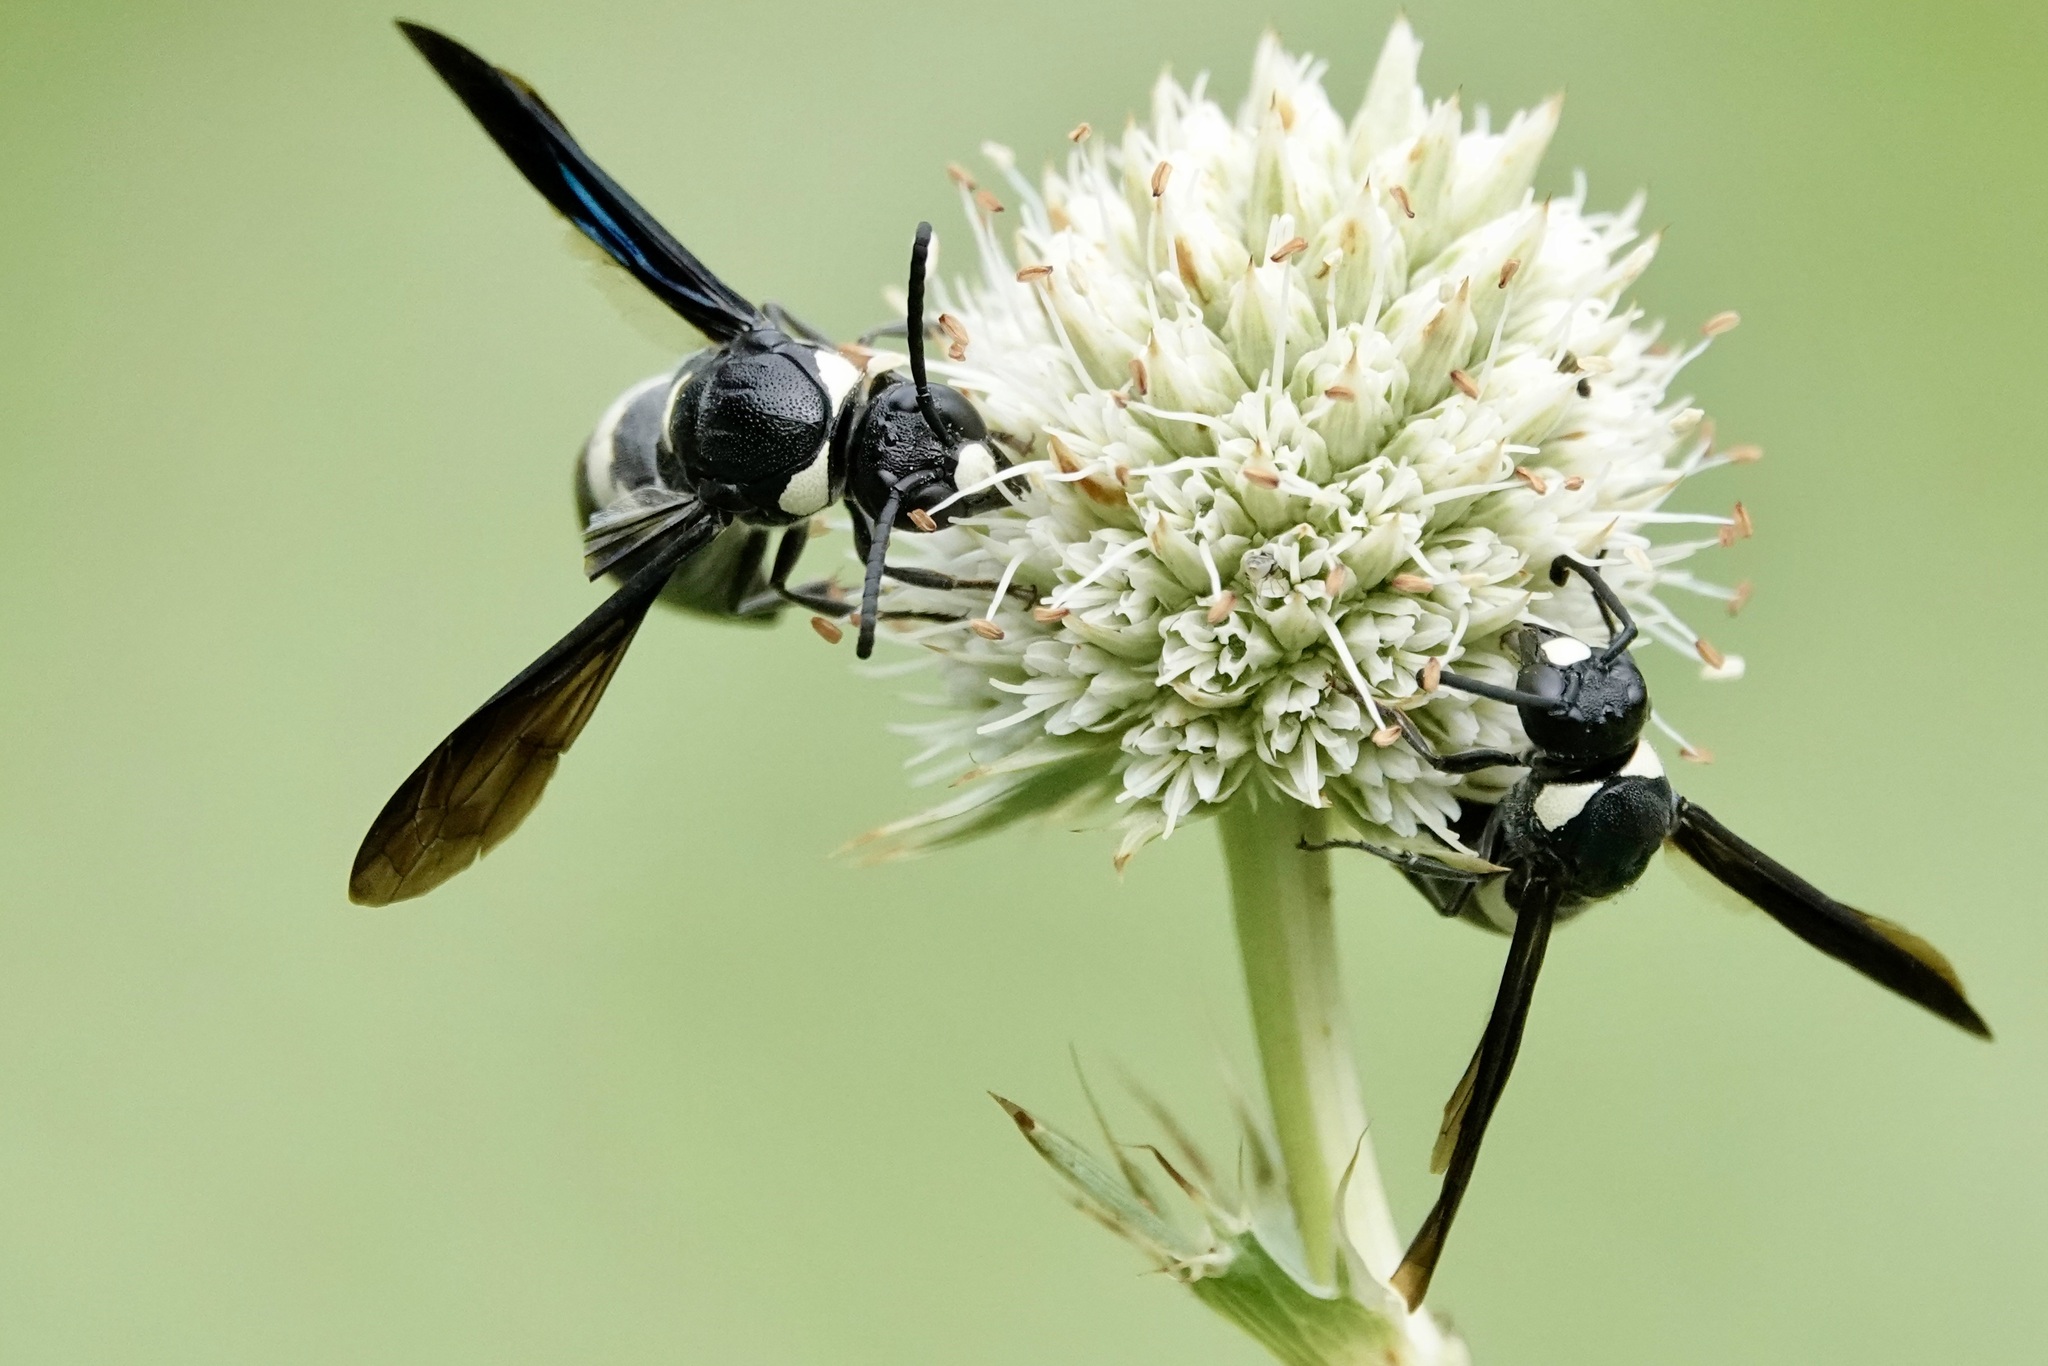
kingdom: Animalia
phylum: Arthropoda
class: Insecta
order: Hymenoptera
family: Eumenidae
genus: Monobia
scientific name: Monobia quadridens
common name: Four-toothed mason wasp
